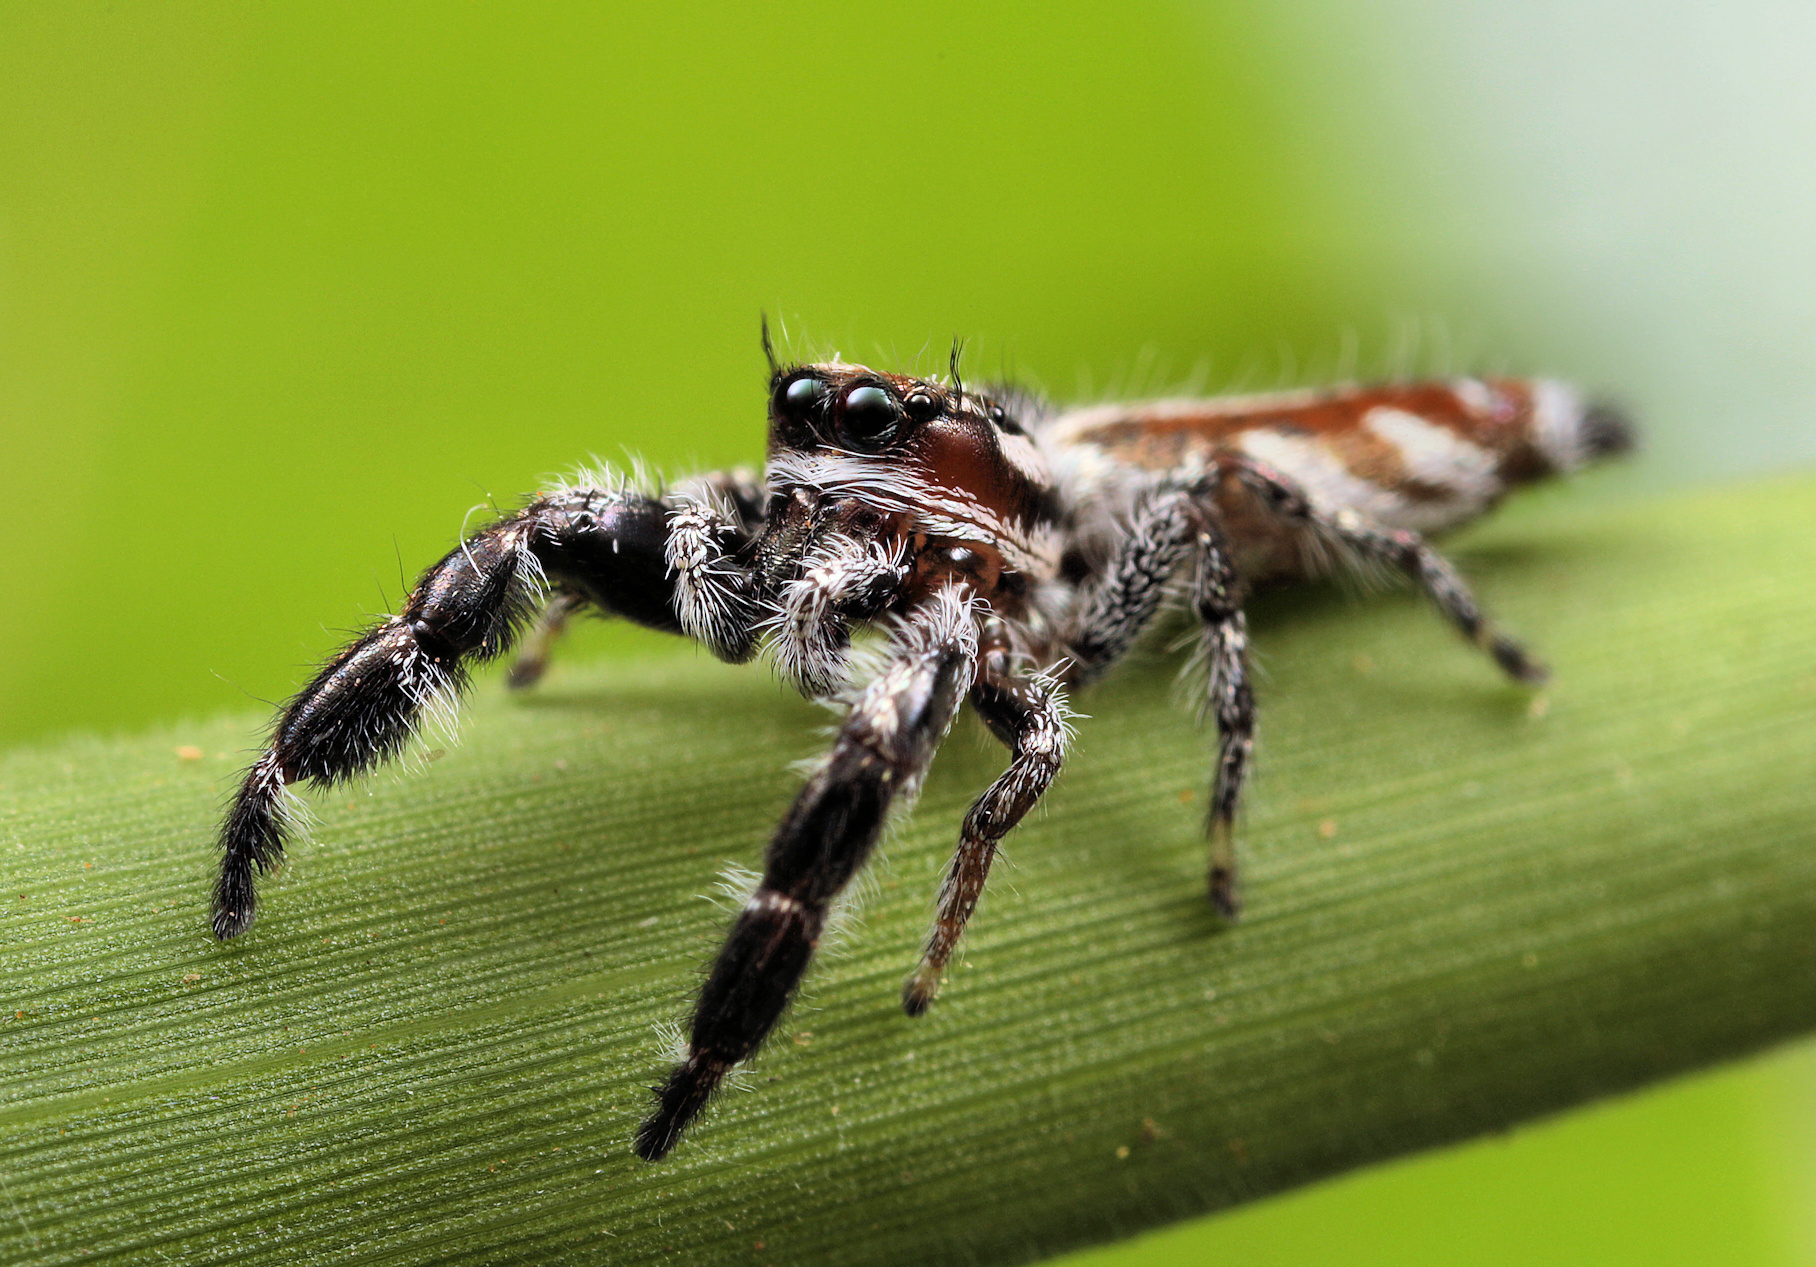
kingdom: Animalia
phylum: Arthropoda
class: Arachnida
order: Araneae
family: Salticidae
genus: Thyene
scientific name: Thyene thyenioides
